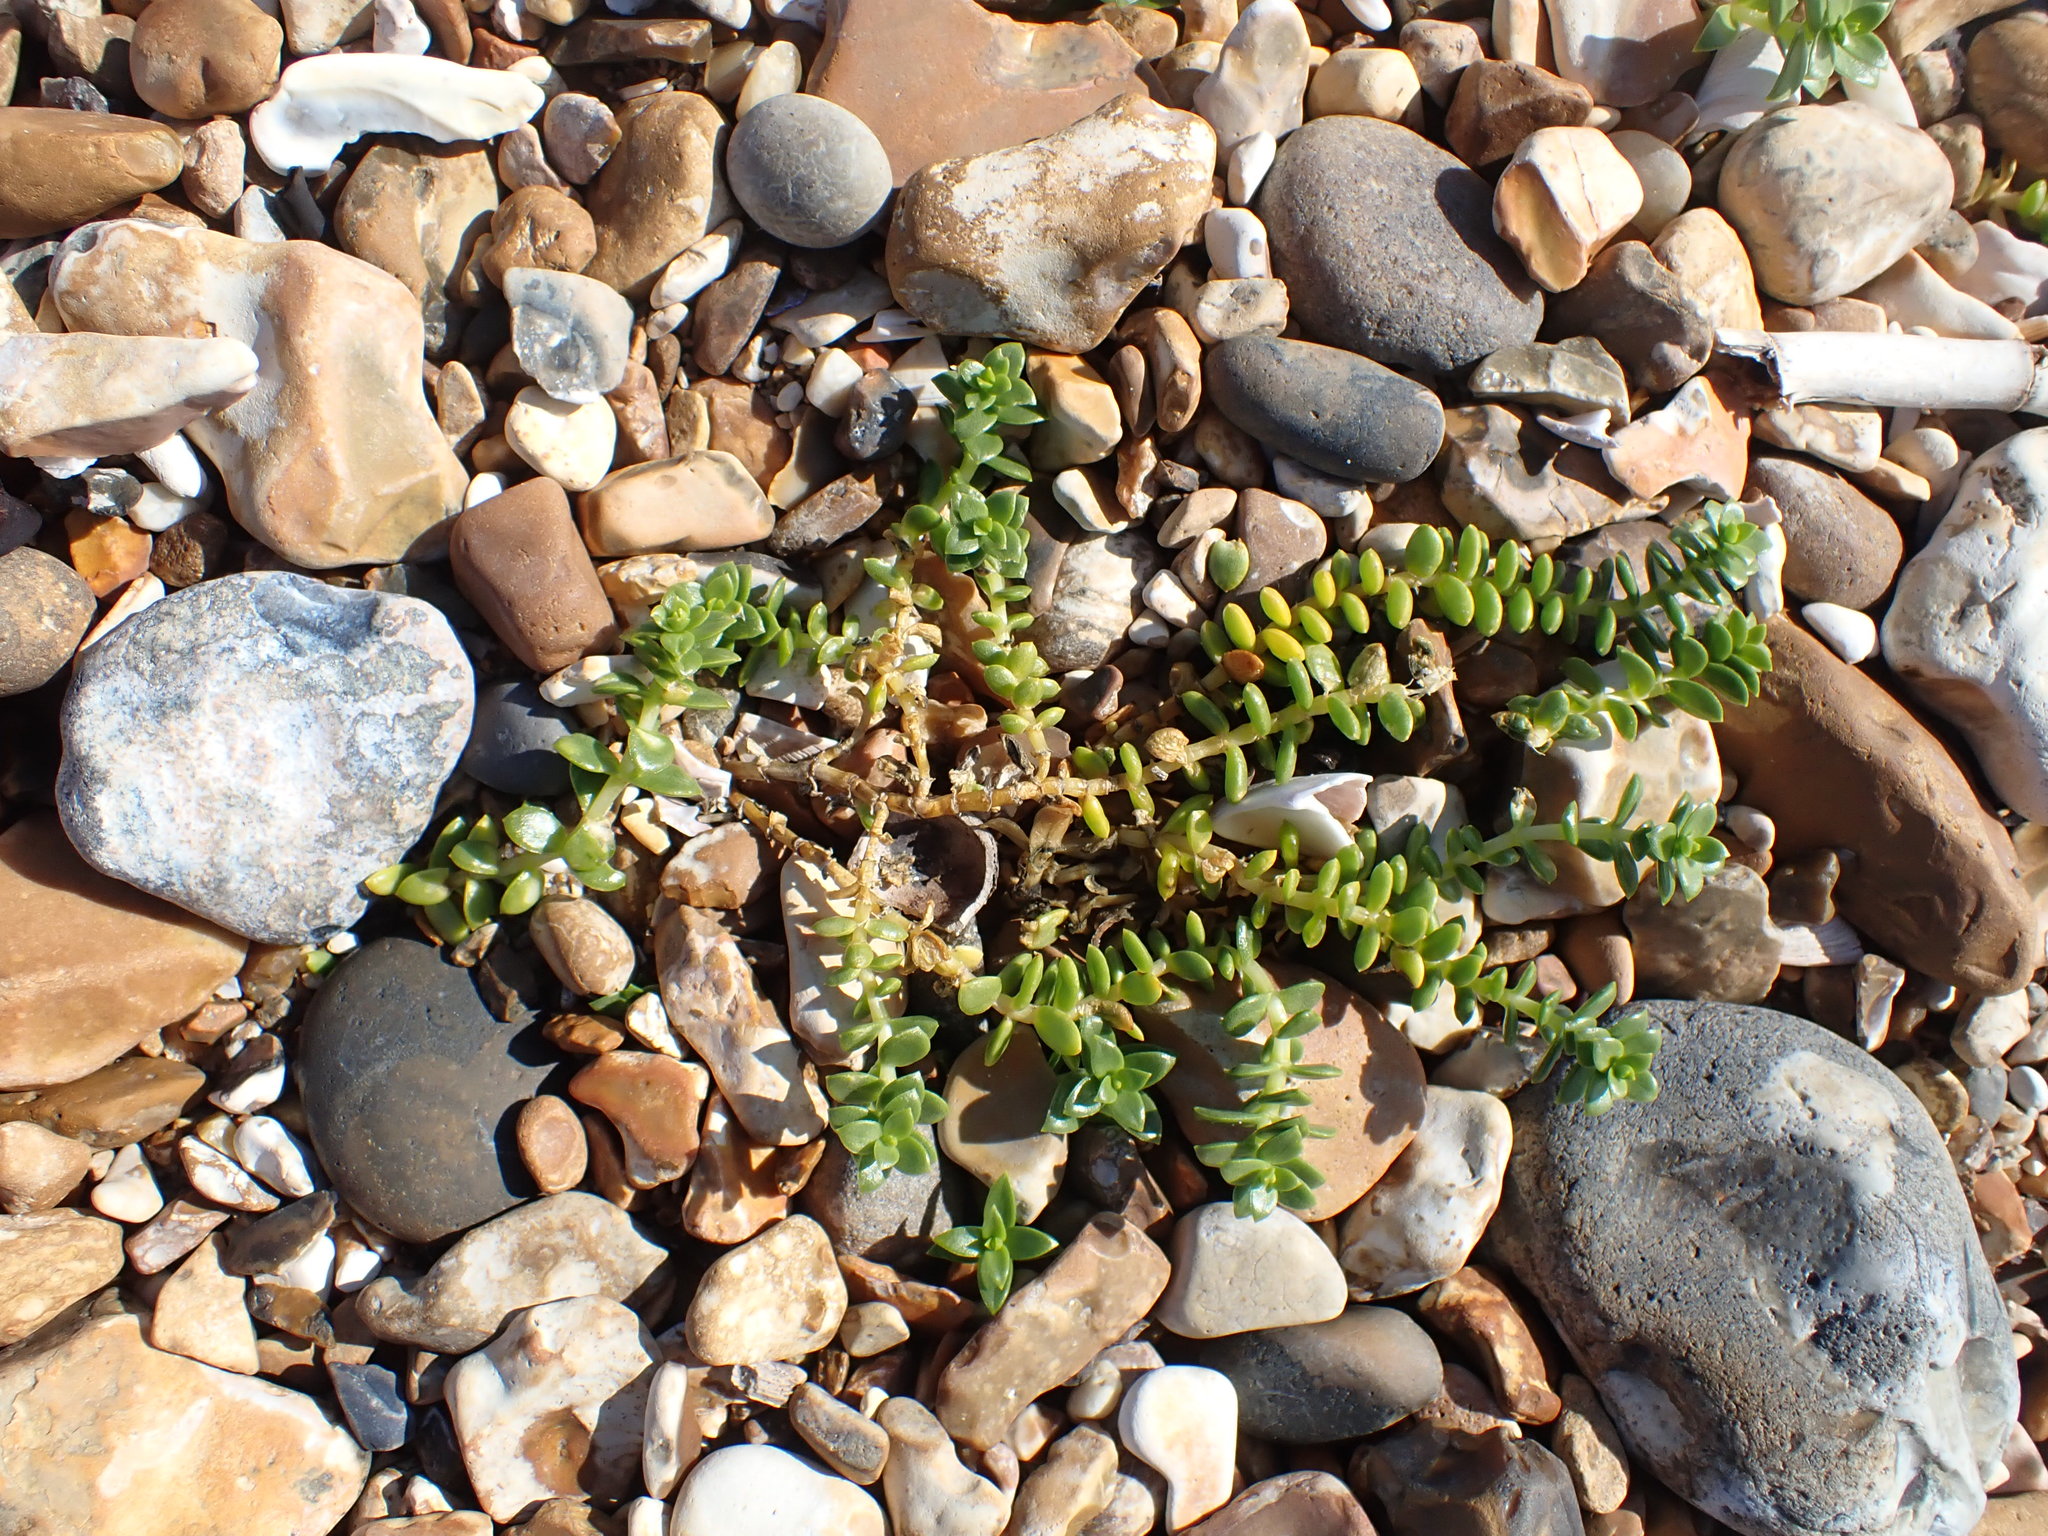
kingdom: Plantae
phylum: Tracheophyta
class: Magnoliopsida
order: Caryophyllales
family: Caryophyllaceae
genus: Honckenya
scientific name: Honckenya peploides
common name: Sea sandwort
